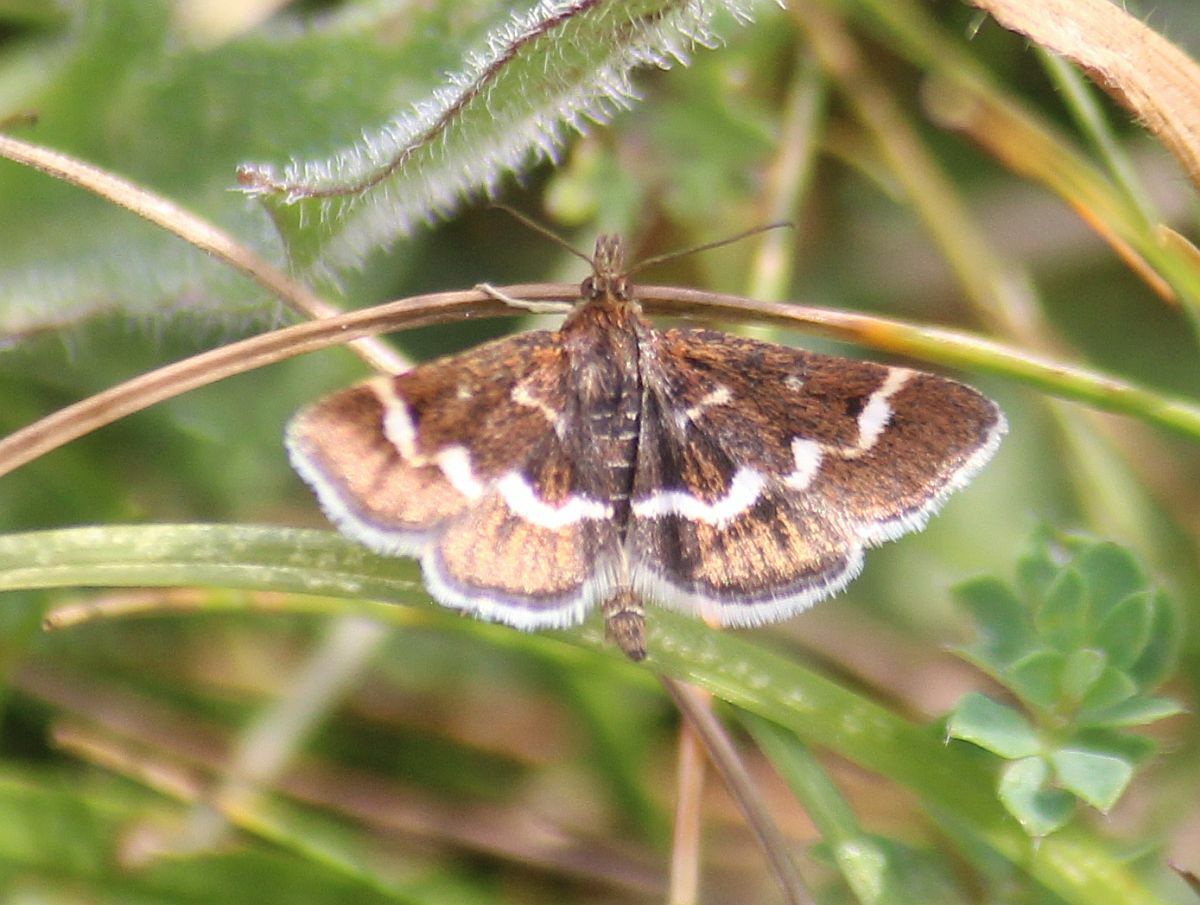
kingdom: Animalia
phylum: Arthropoda
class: Insecta
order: Lepidoptera
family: Crambidae
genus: Pyrausta
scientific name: Pyrausta nigrata
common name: Wavy-barred sable
